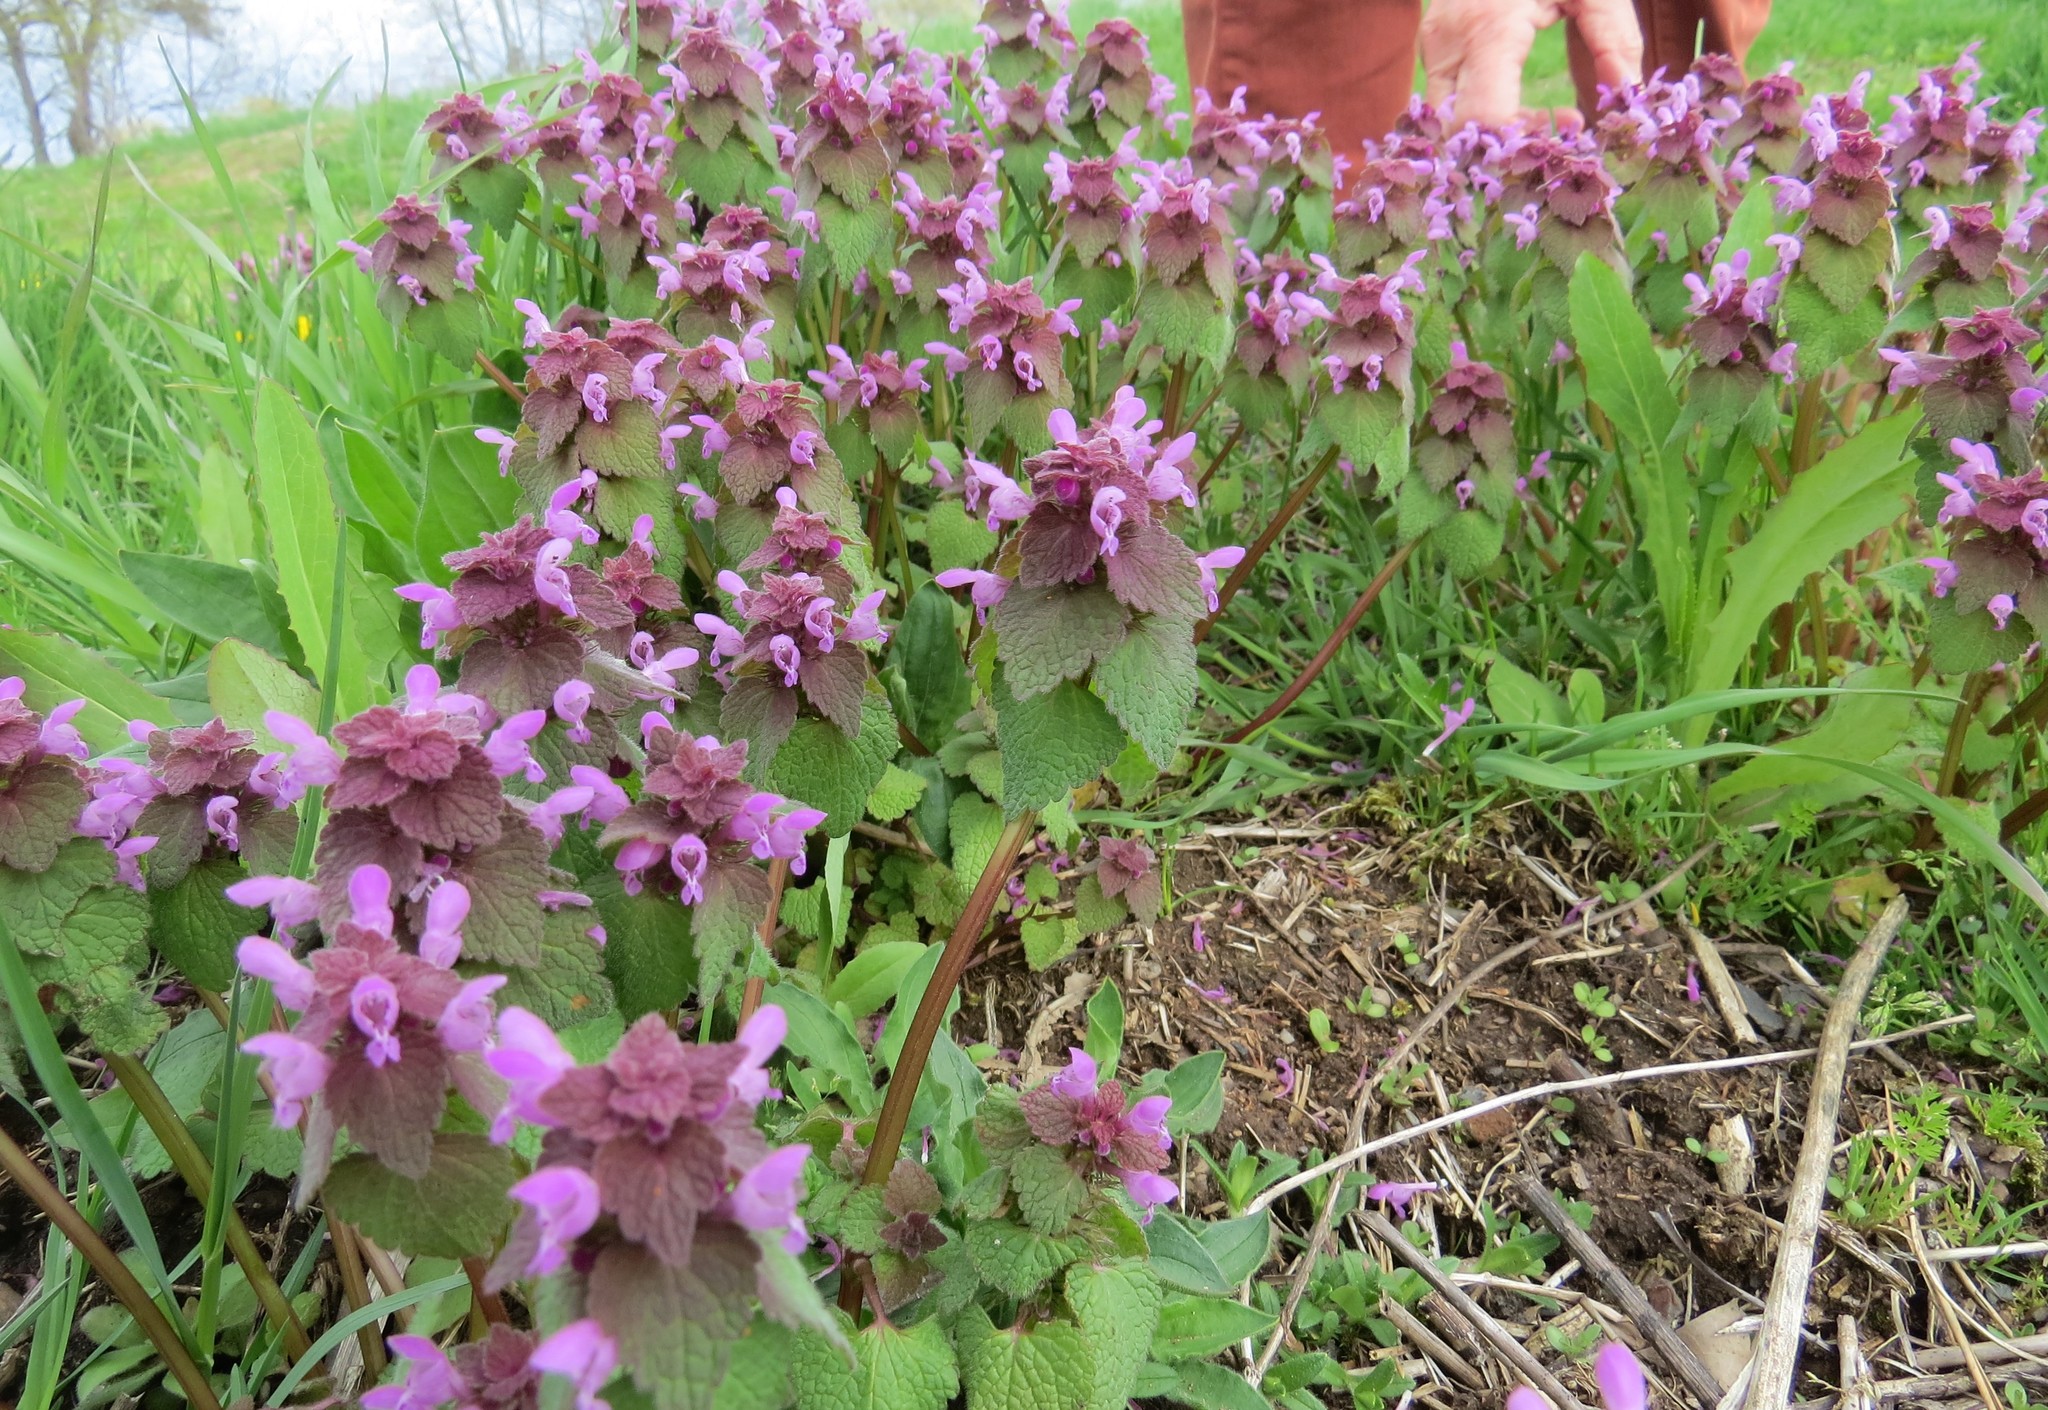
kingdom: Plantae
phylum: Tracheophyta
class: Magnoliopsida
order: Lamiales
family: Lamiaceae
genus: Lamium
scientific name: Lamium purpureum
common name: Red dead-nettle
